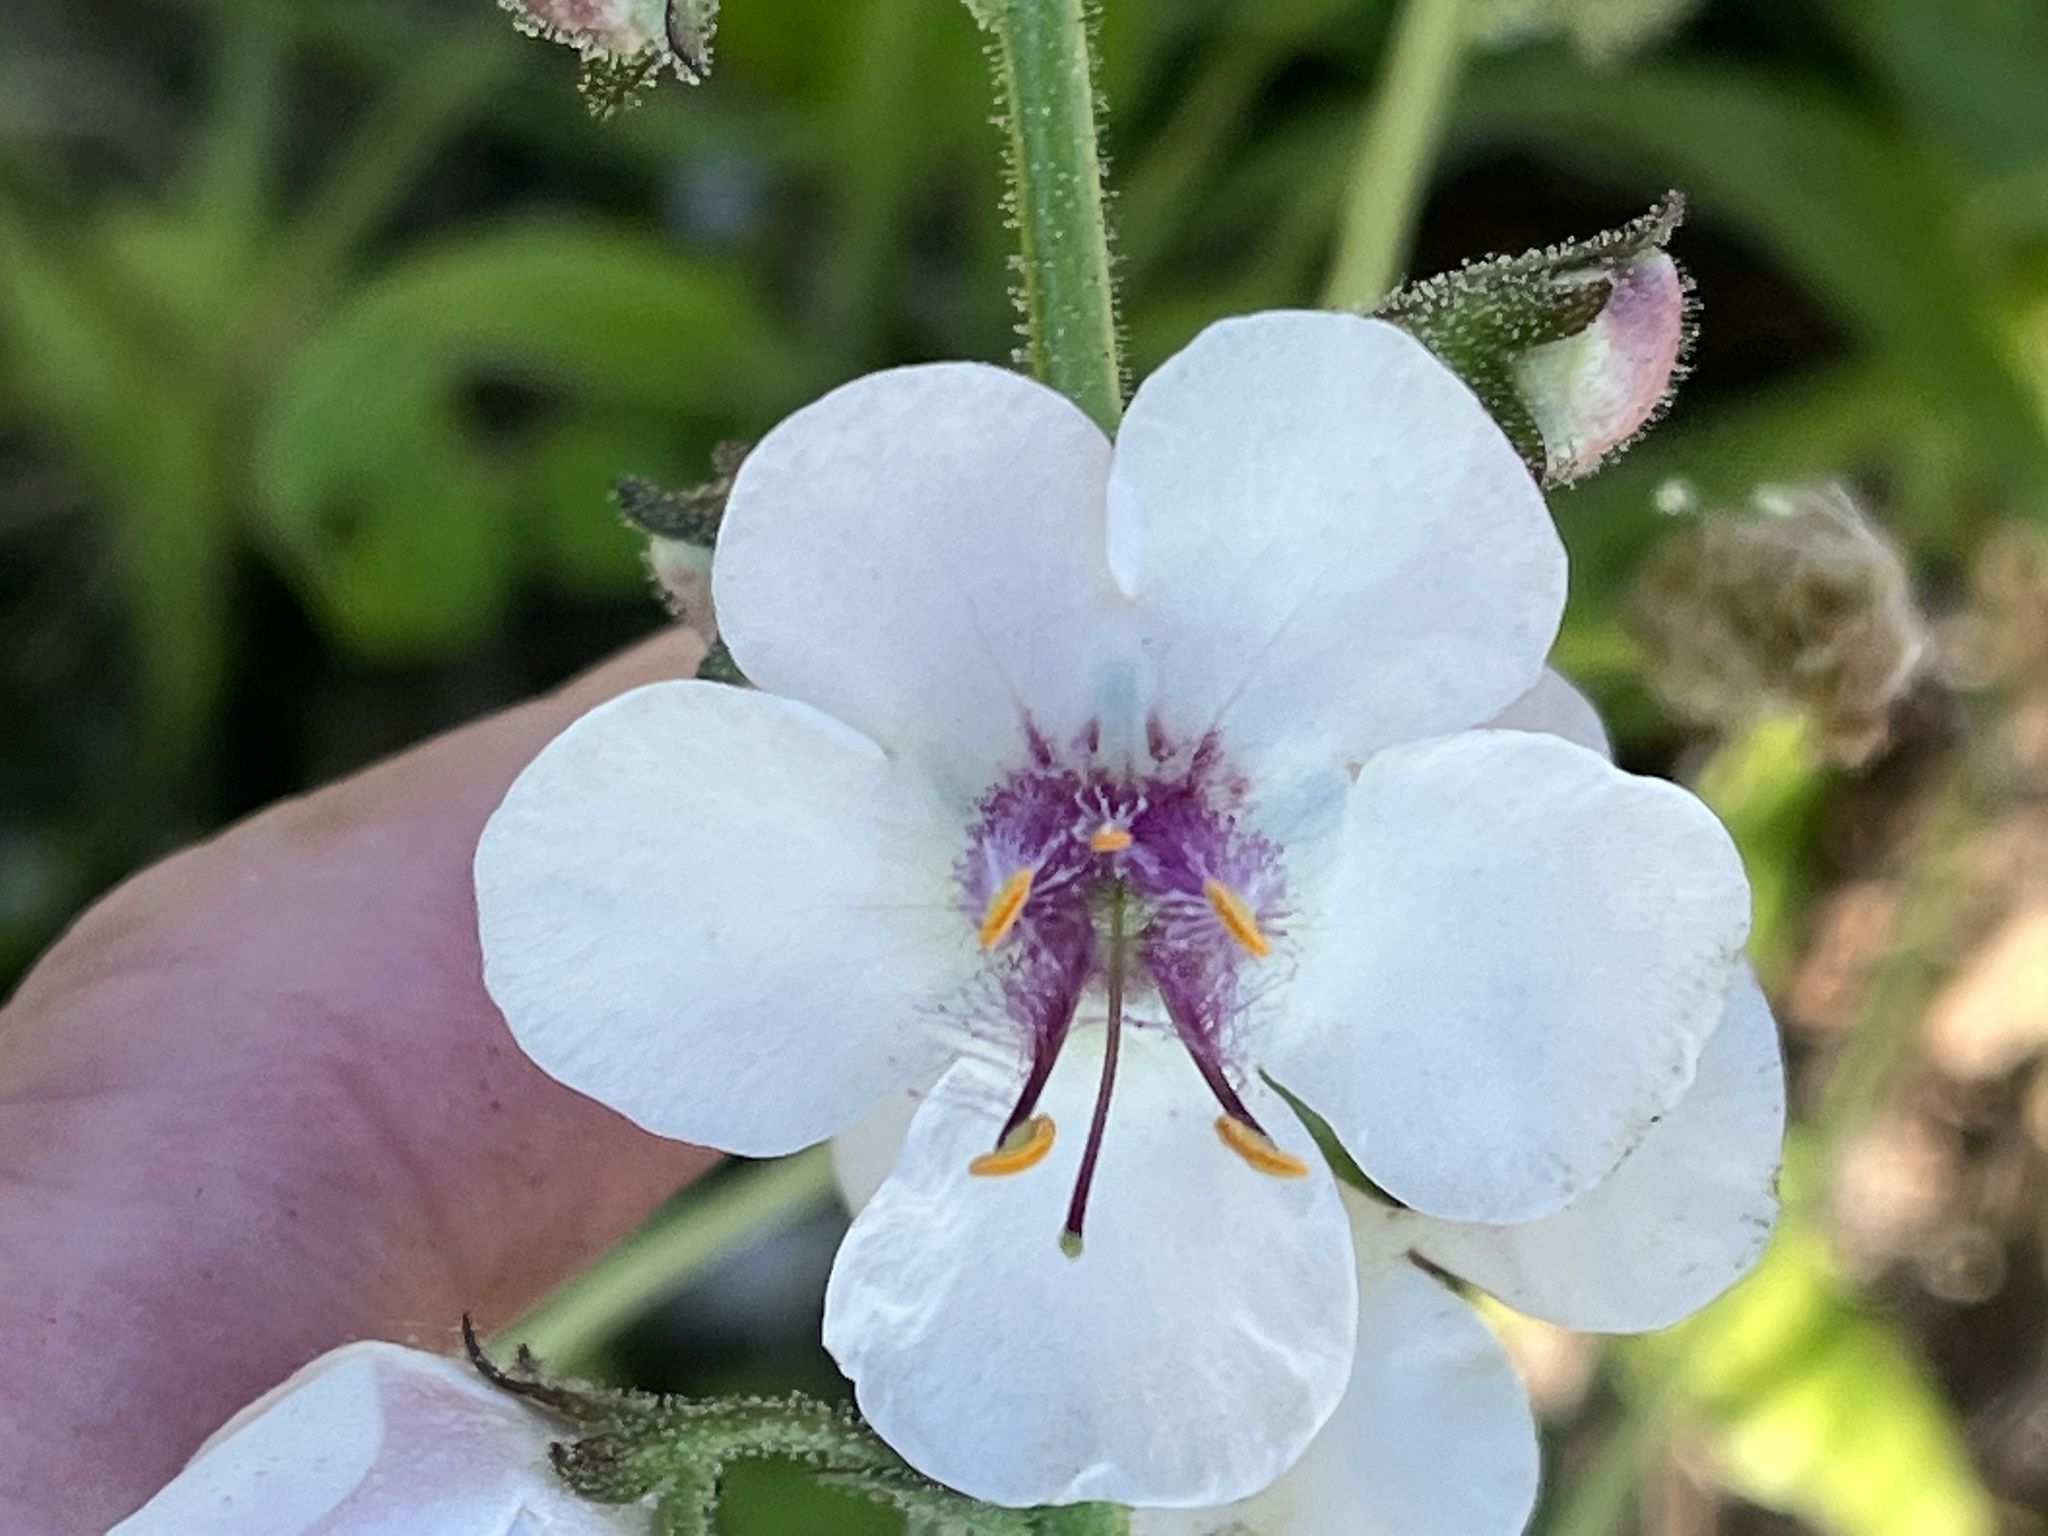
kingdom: Plantae
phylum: Tracheophyta
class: Magnoliopsida
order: Lamiales
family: Scrophulariaceae
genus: Verbascum
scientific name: Verbascum blattaria
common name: Moth mullein
